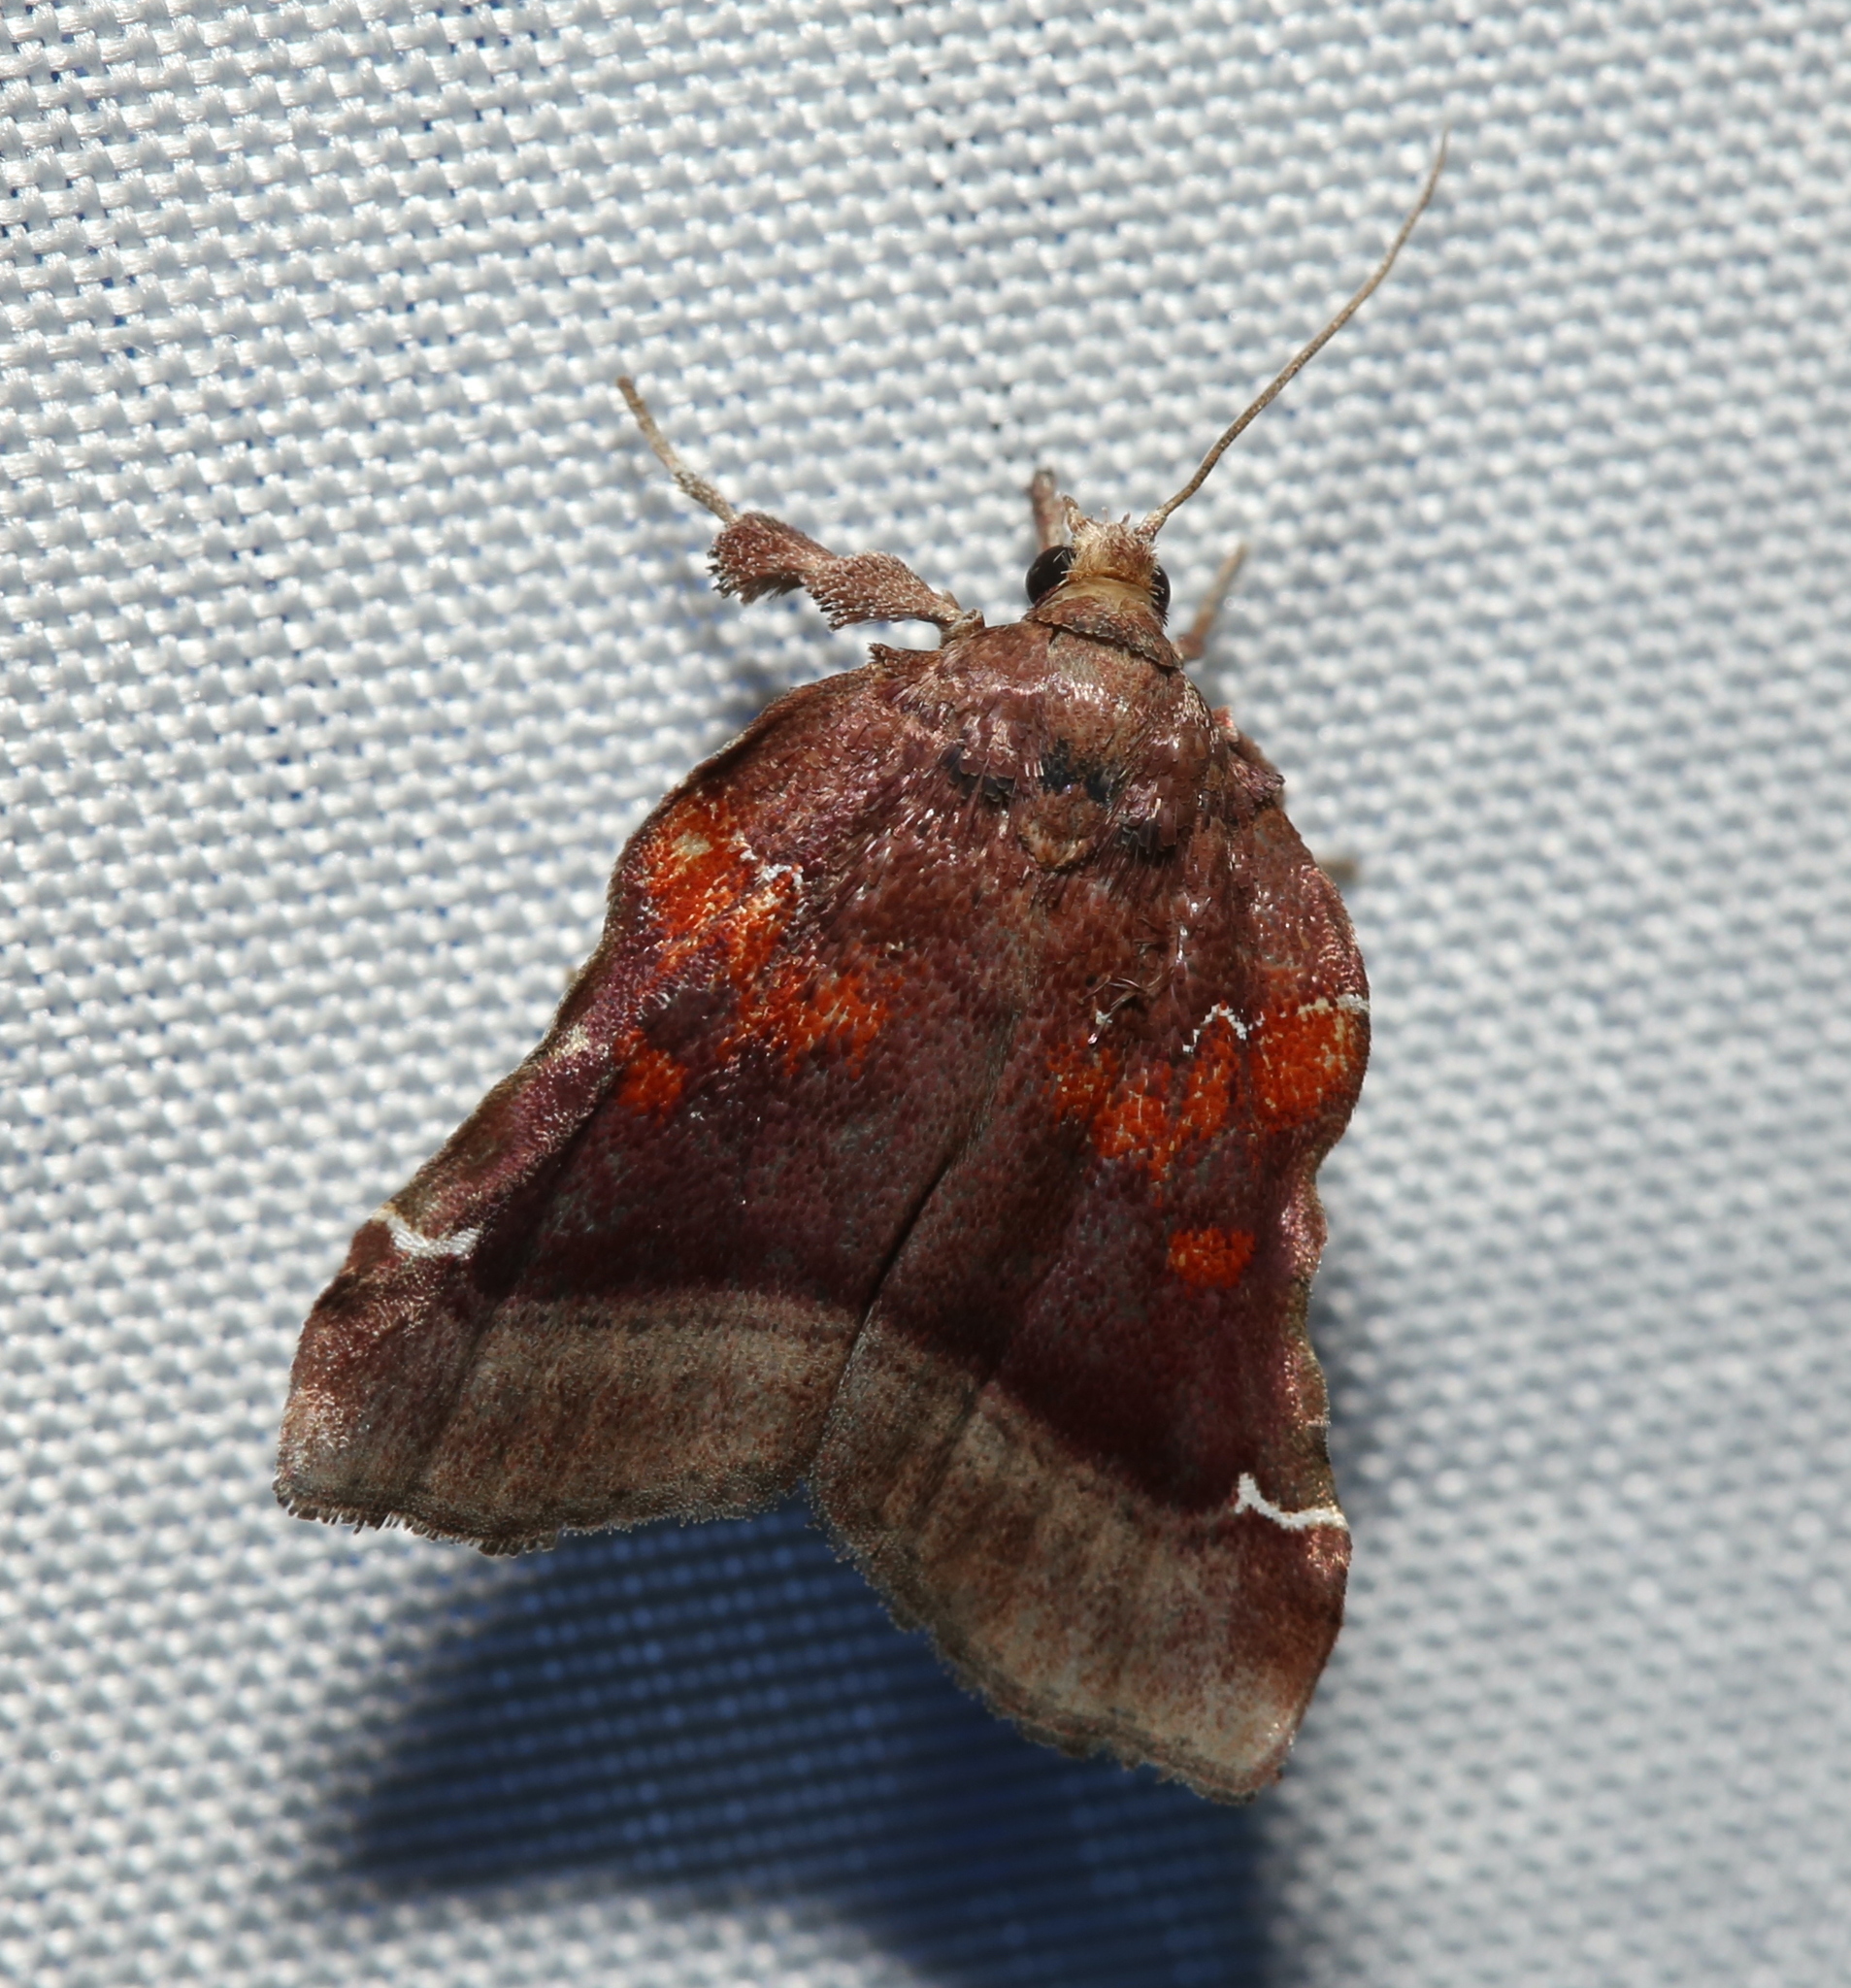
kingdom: Animalia
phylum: Arthropoda
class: Insecta
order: Lepidoptera
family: Pyralidae
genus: Clydonopteron
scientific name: Clydonopteron sacculana
